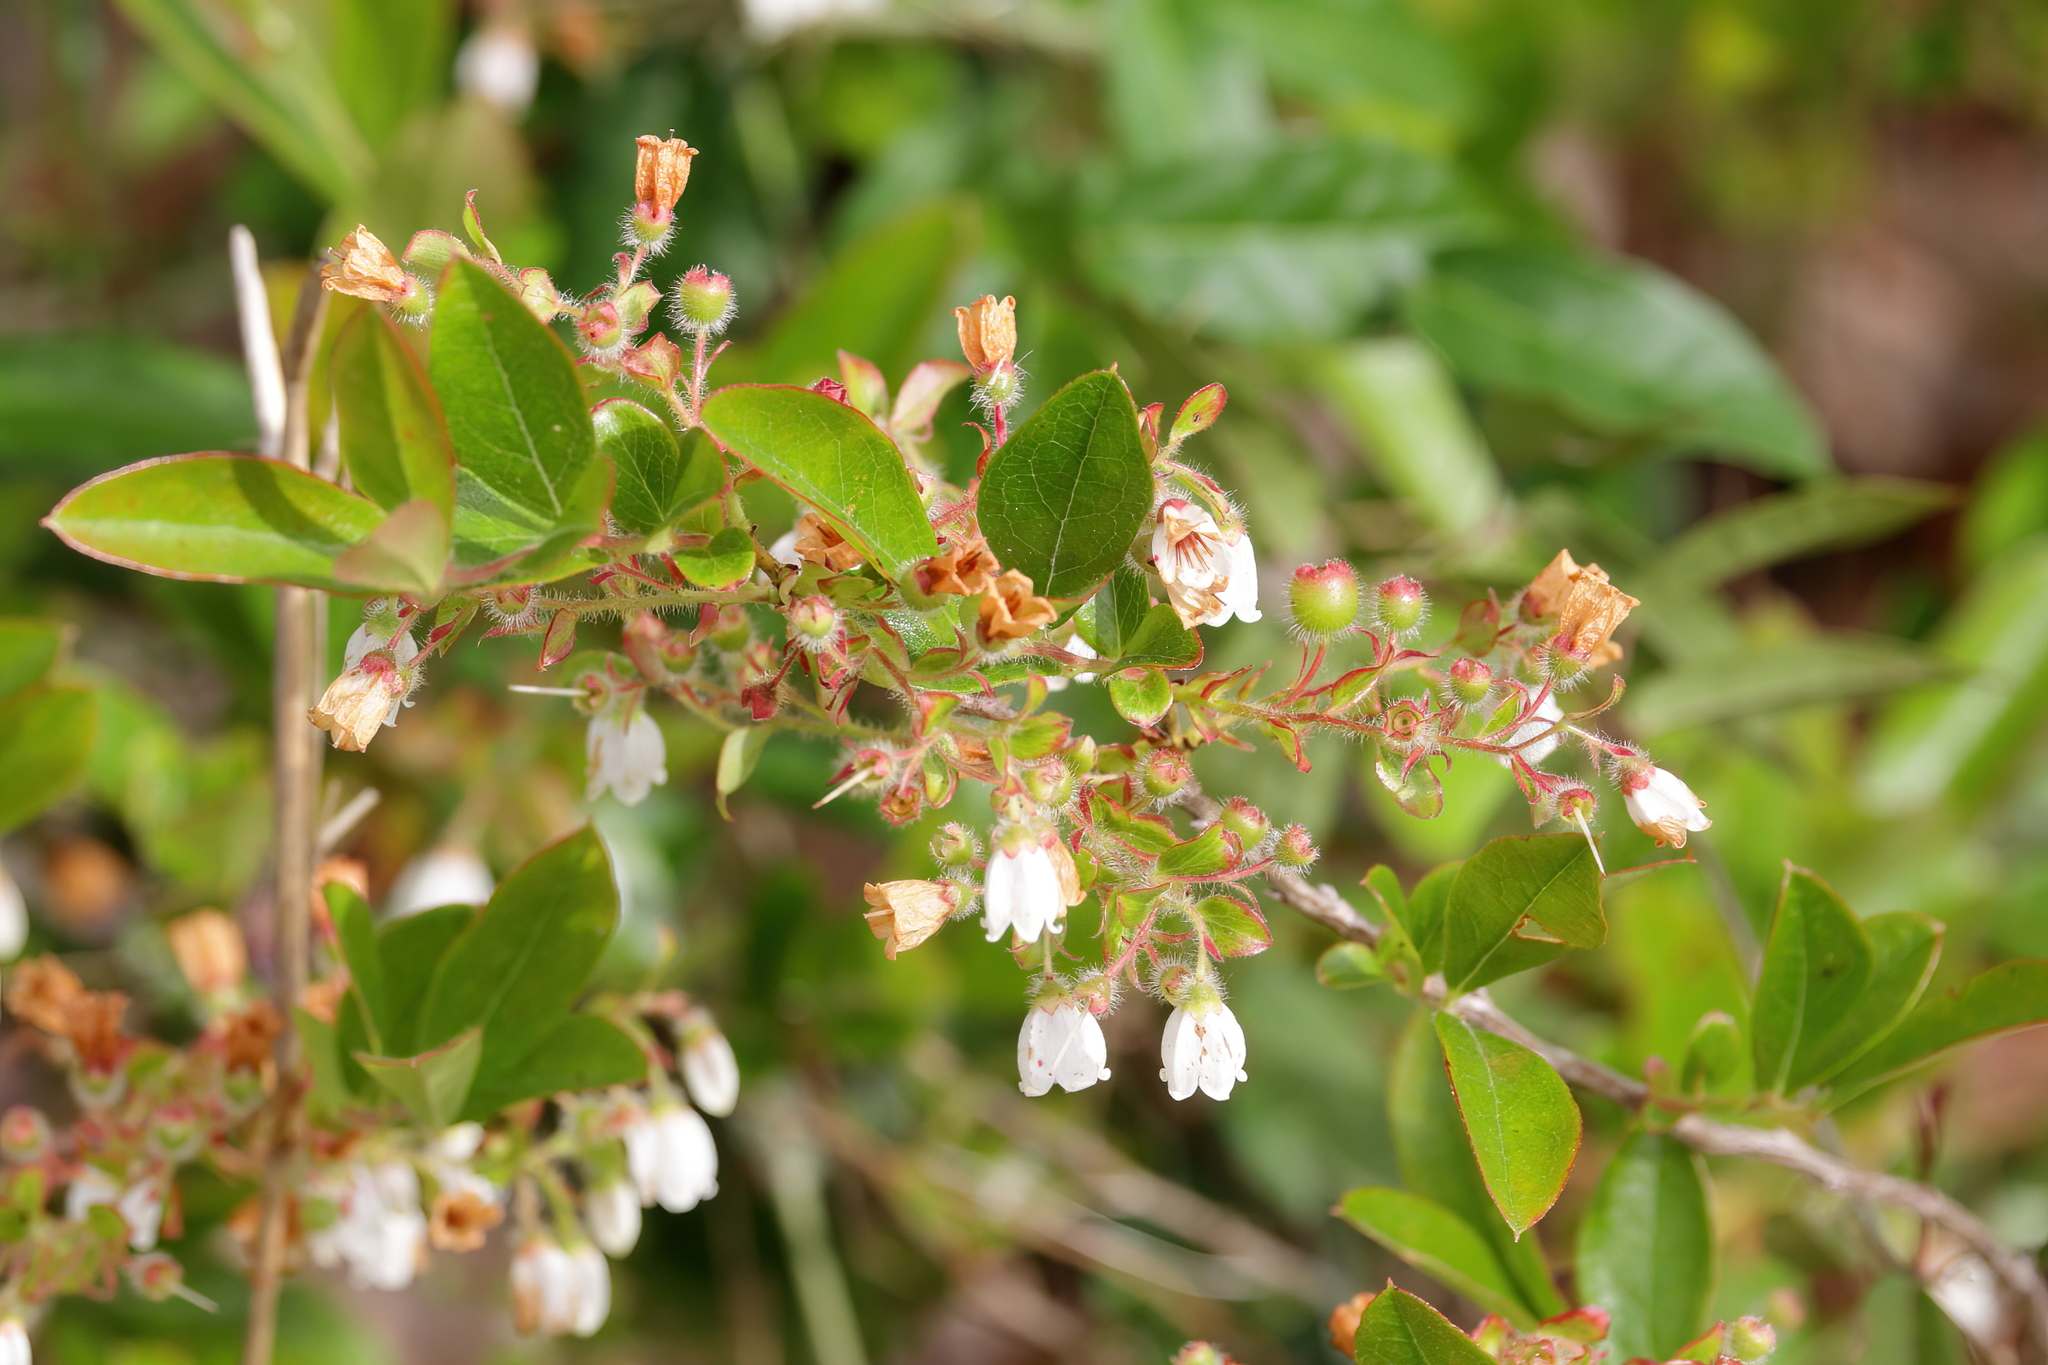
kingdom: Plantae
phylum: Tracheophyta
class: Magnoliopsida
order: Ericales
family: Ericaceae
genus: Gaylussacia
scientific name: Gaylussacia mosieri
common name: Hirsute huckleberry
